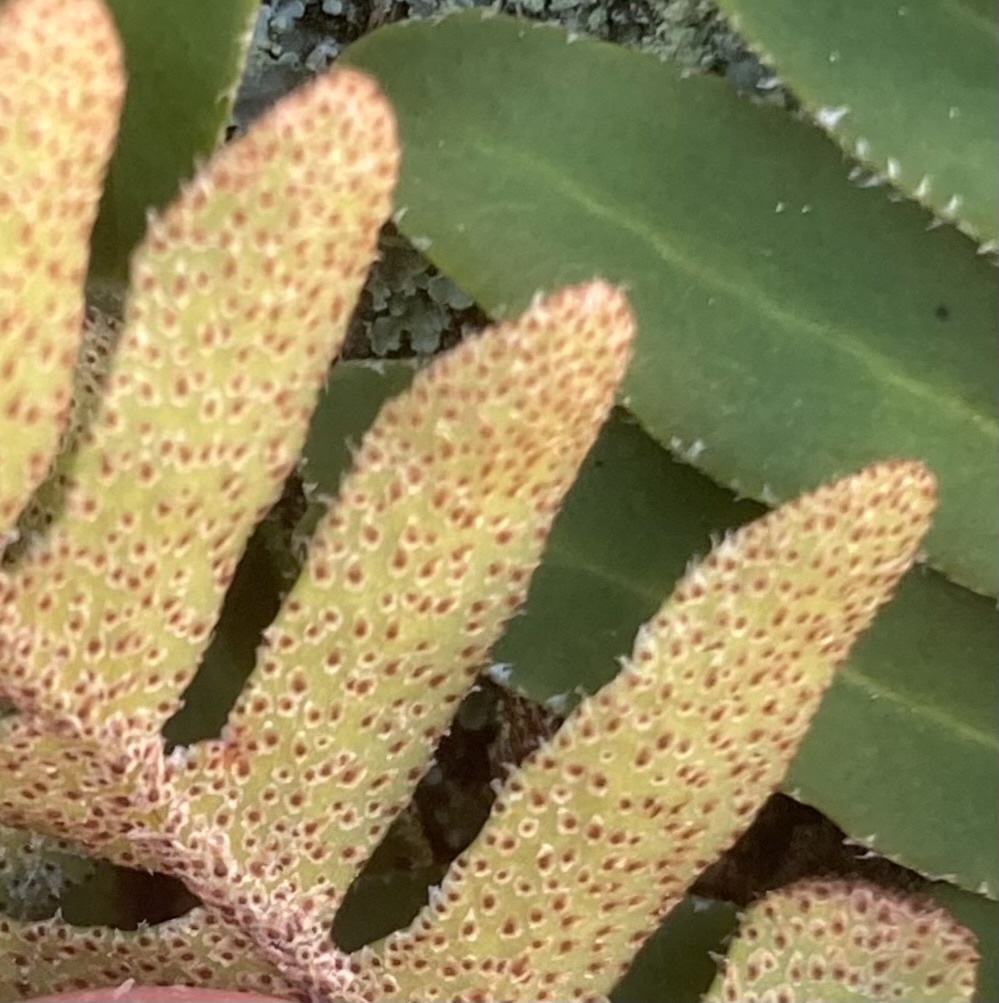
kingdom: Plantae
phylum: Tracheophyta
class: Polypodiopsida
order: Polypodiales
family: Polypodiaceae
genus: Pleopeltis
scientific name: Pleopeltis michauxiana
